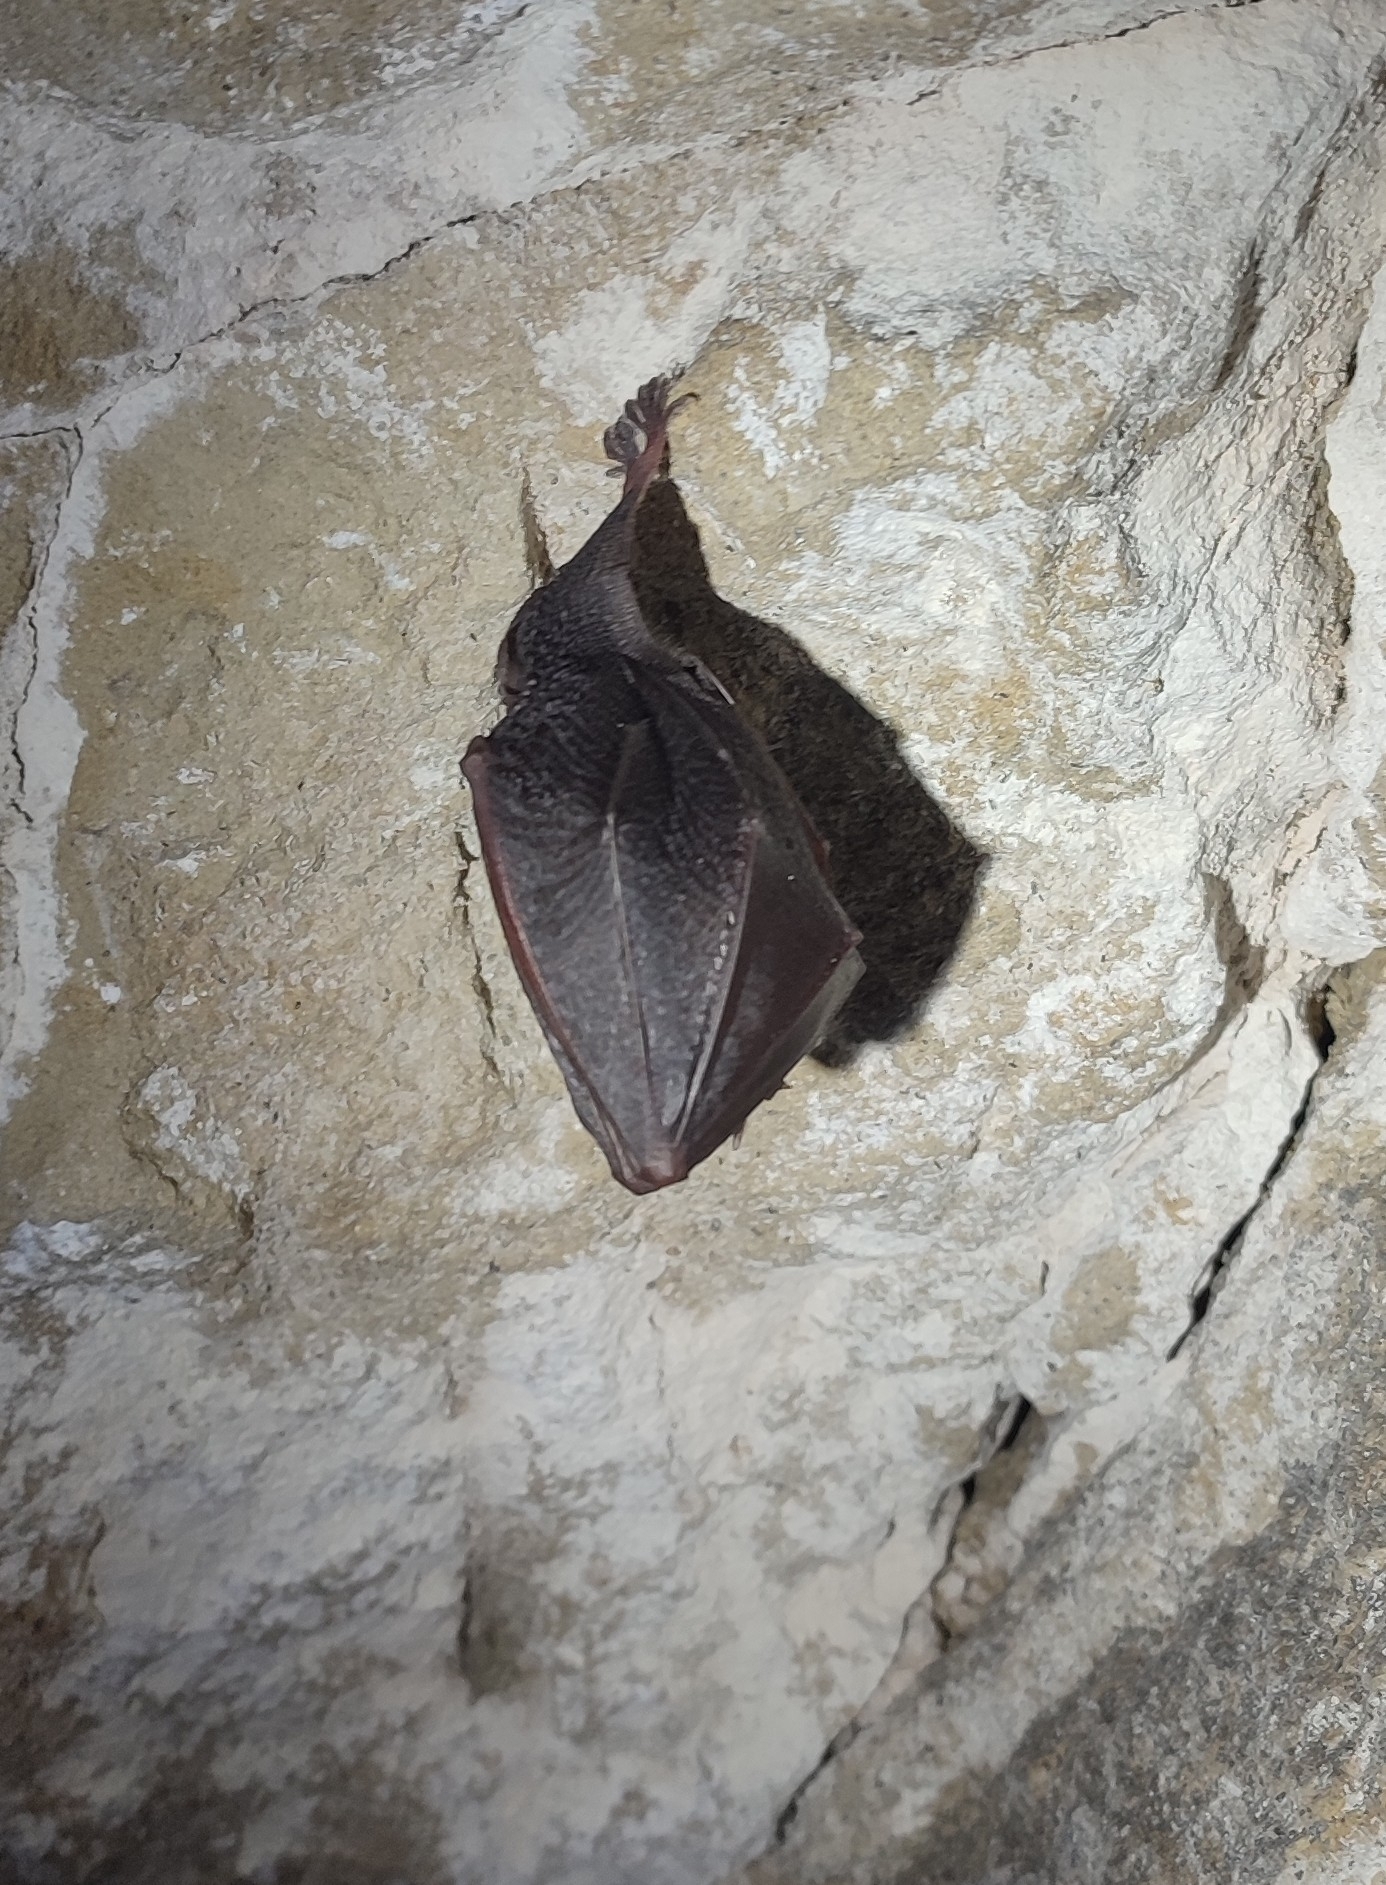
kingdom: Animalia
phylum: Chordata
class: Mammalia
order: Chiroptera
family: Rhinolophidae
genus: Rhinolophus
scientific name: Rhinolophus hipposideros
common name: Lesser horseshoe bat
